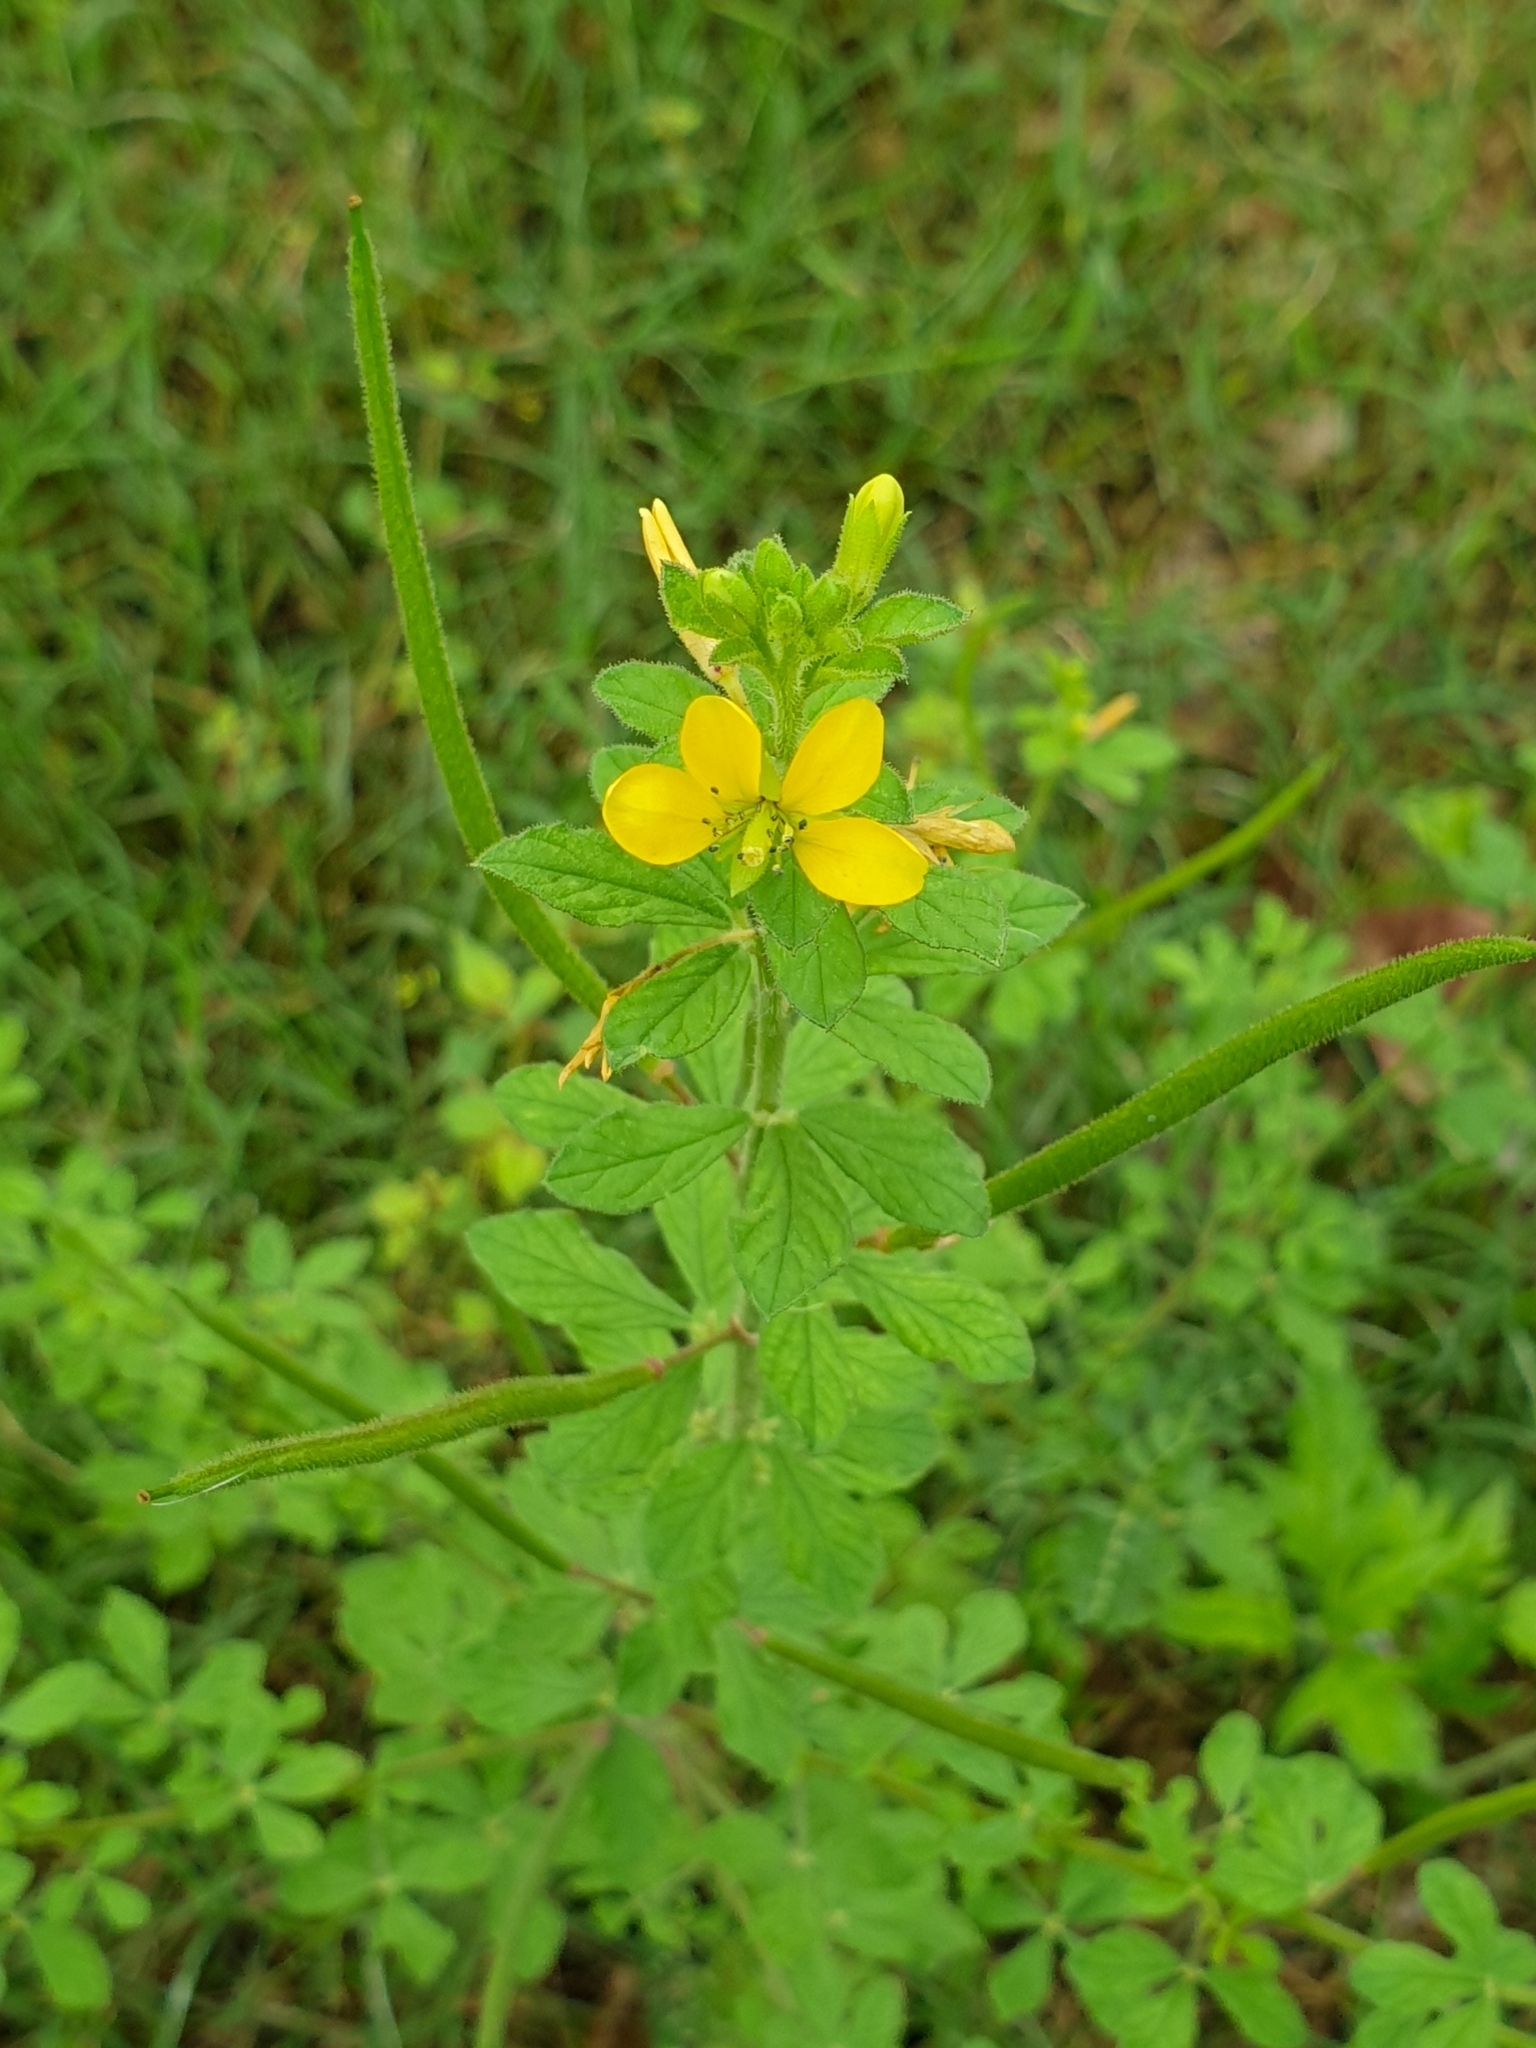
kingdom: Plantae
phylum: Tracheophyta
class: Magnoliopsida
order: Brassicales
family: Cleomaceae
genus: Arivela
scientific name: Arivela viscosa
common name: Asian spiderflower
